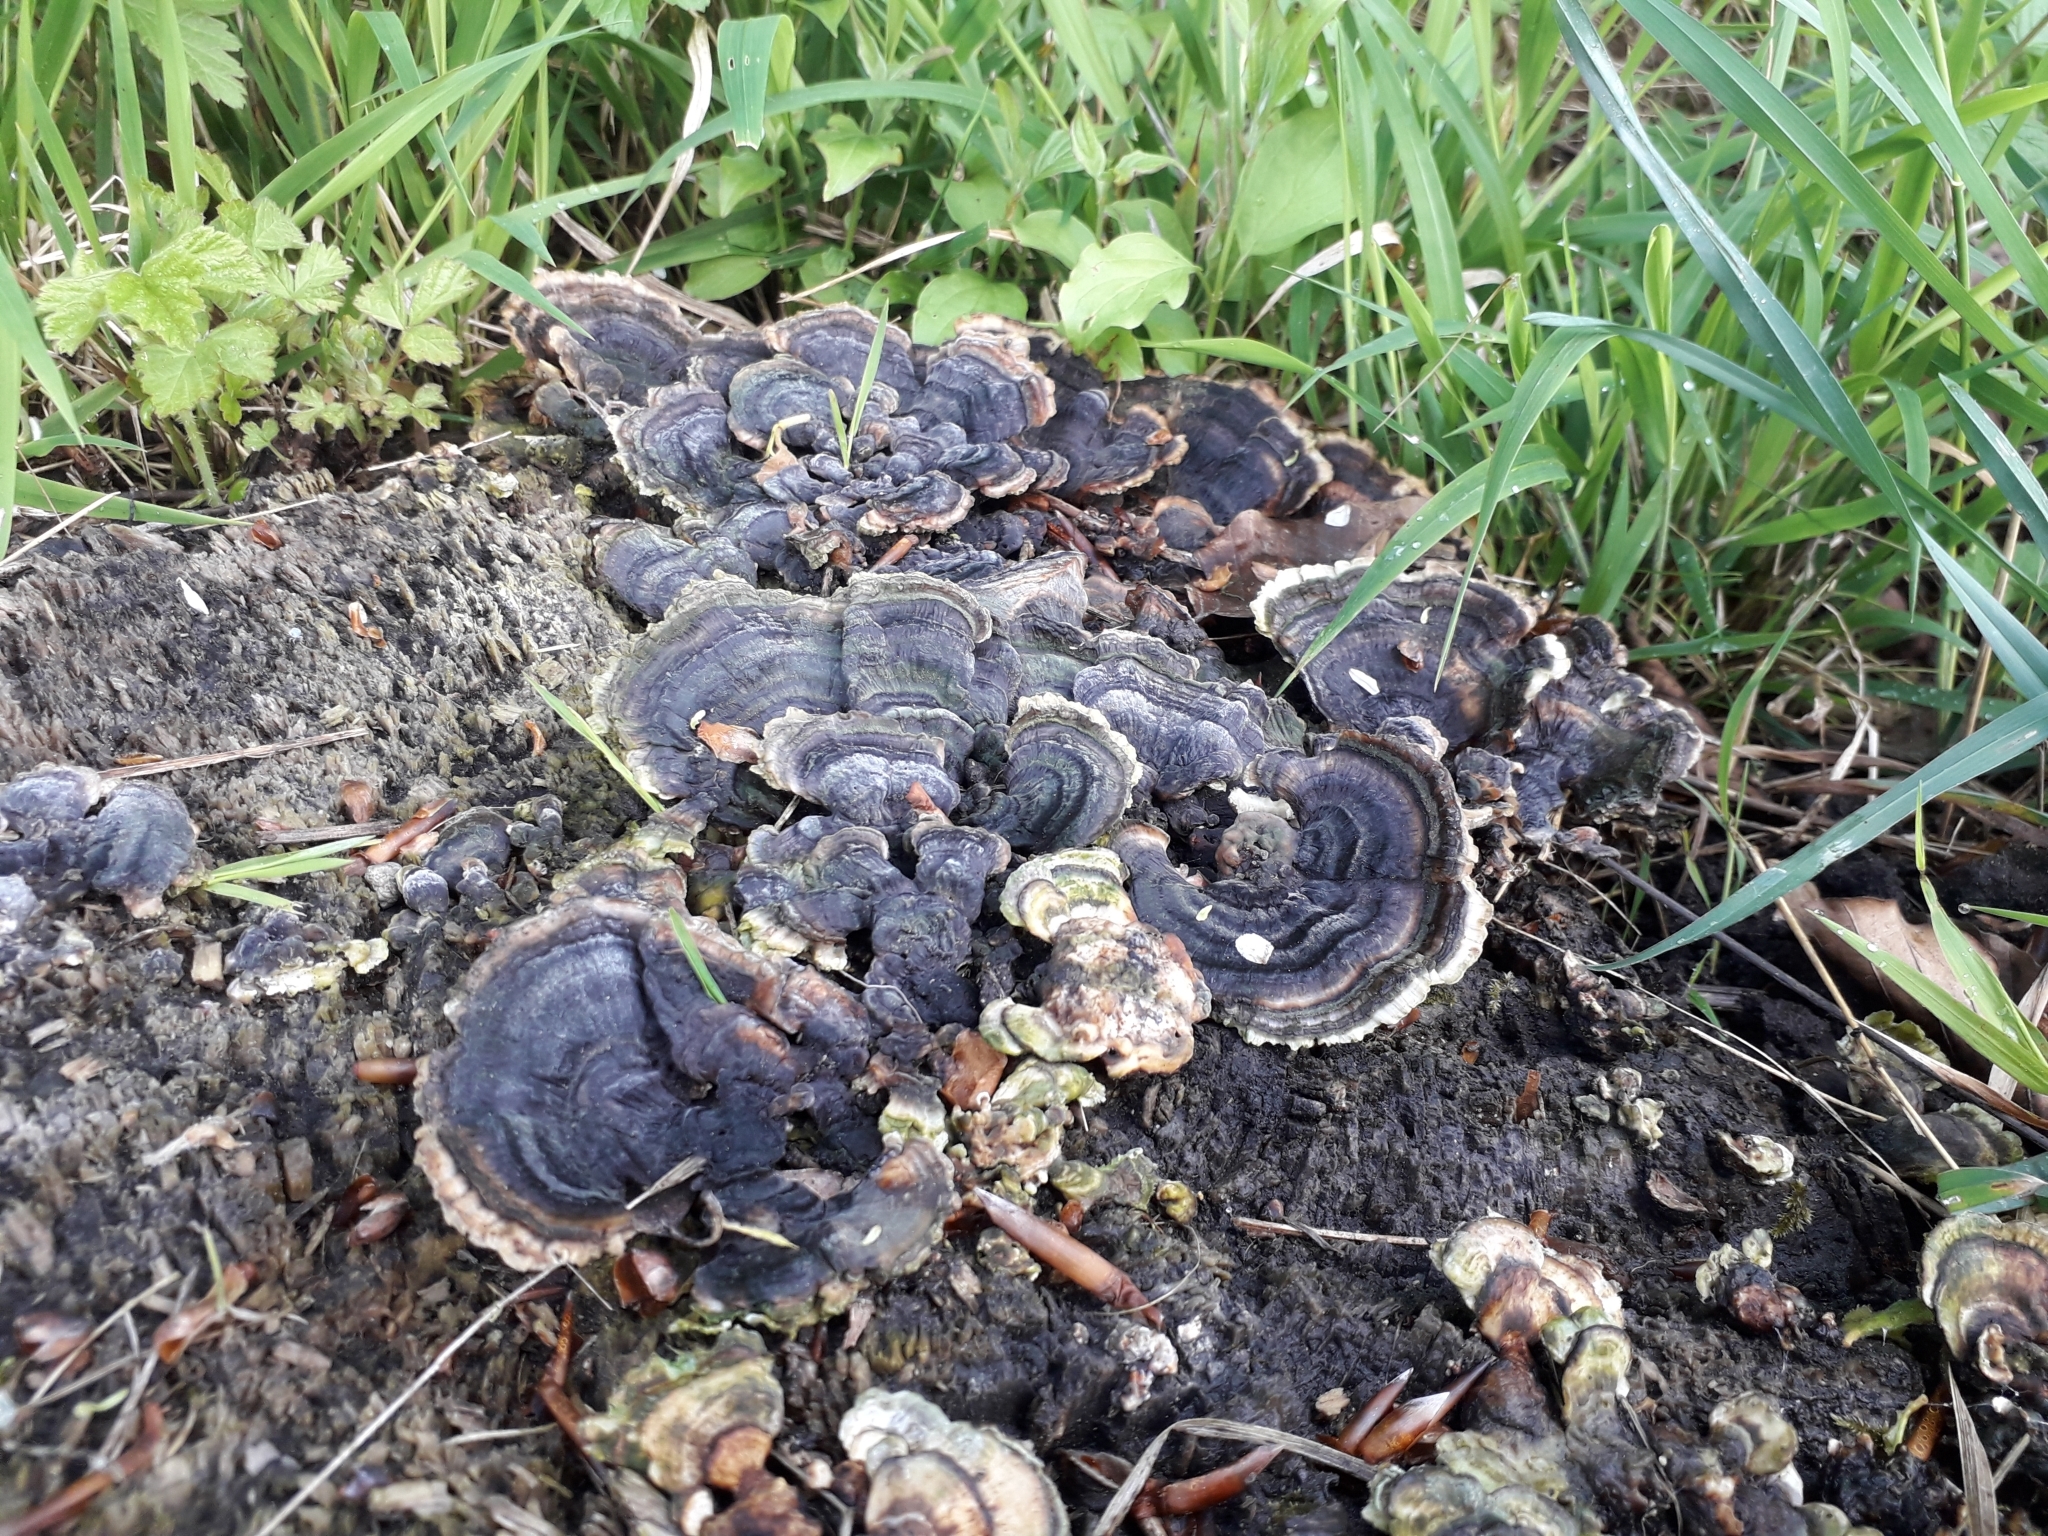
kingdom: Fungi
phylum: Basidiomycota
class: Agaricomycetes
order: Polyporales
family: Polyporaceae
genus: Trametes
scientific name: Trametes versicolor
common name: Turkeytail
